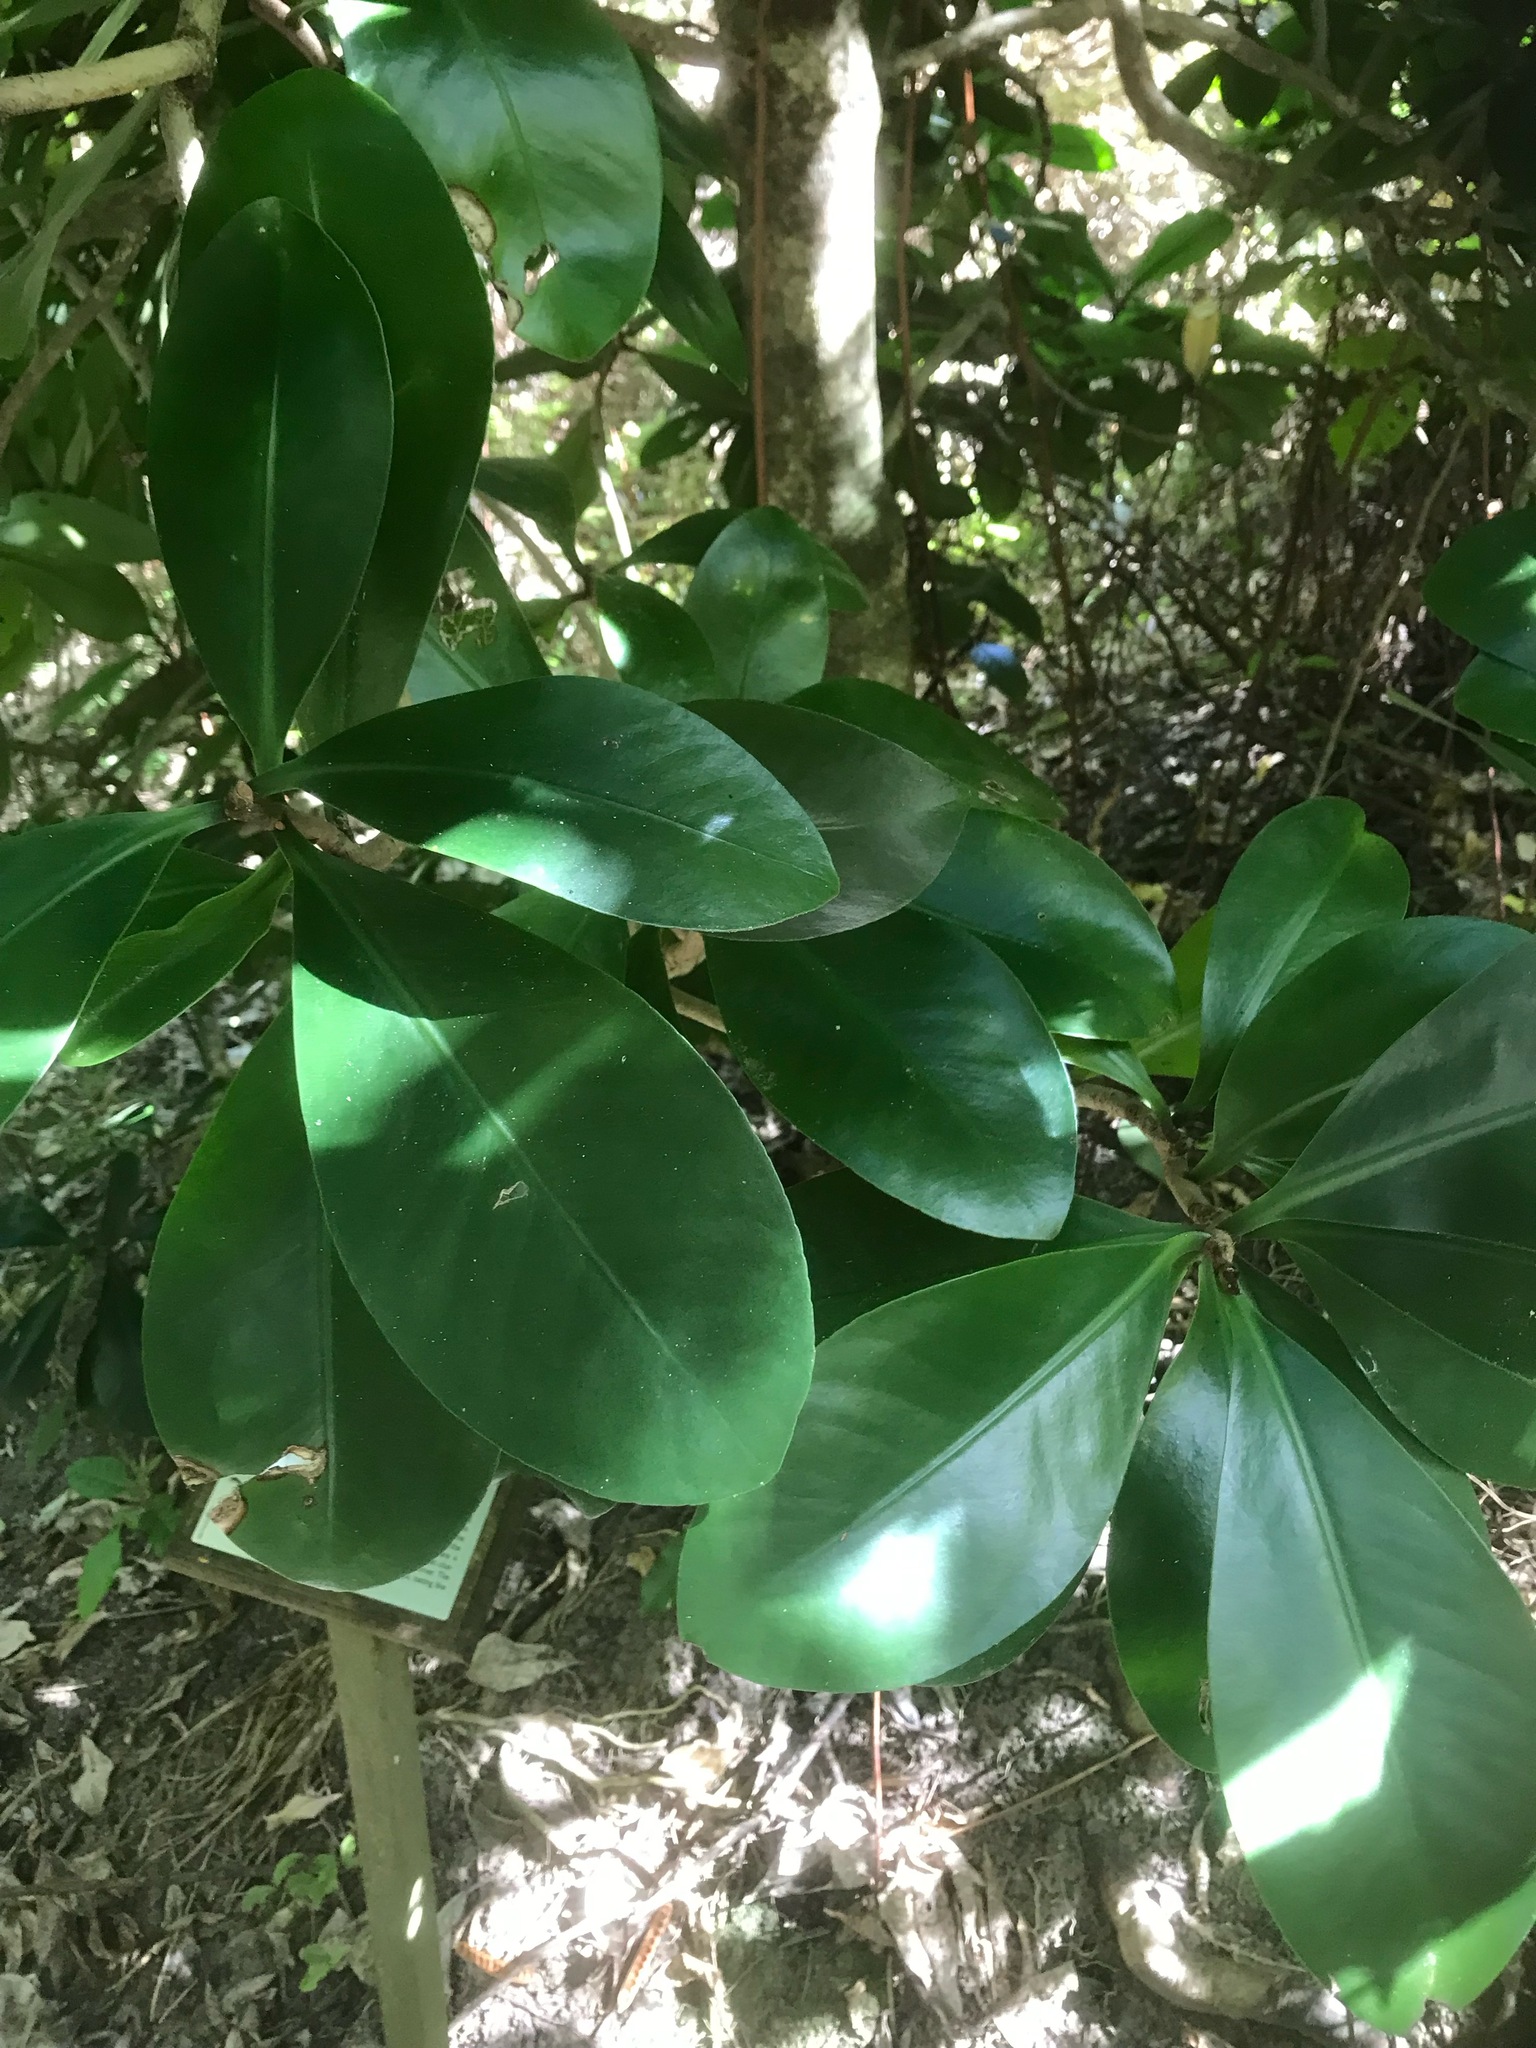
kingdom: Plantae
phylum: Tracheophyta
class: Magnoliopsida
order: Cucurbitales
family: Corynocarpaceae
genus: Corynocarpus
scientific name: Corynocarpus laevigatus
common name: New zealand laurel
